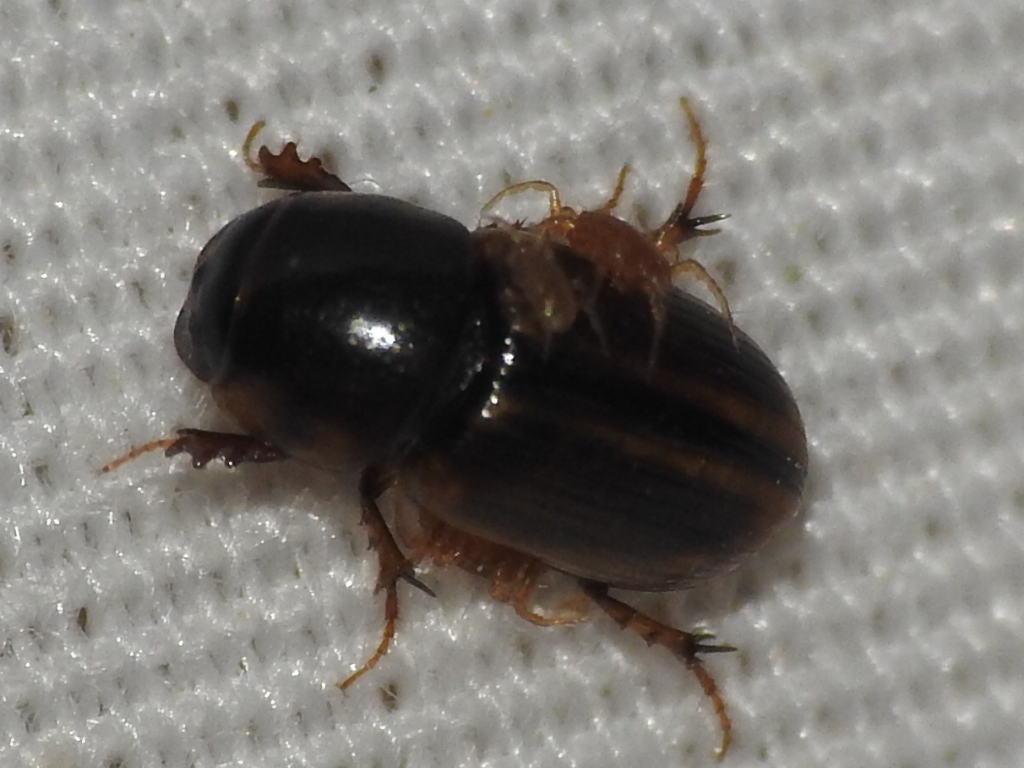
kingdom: Animalia
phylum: Arthropoda
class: Insecta
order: Coleoptera
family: Scarabaeidae
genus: Labarrus
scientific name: Labarrus lividus
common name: Scarab beetle
